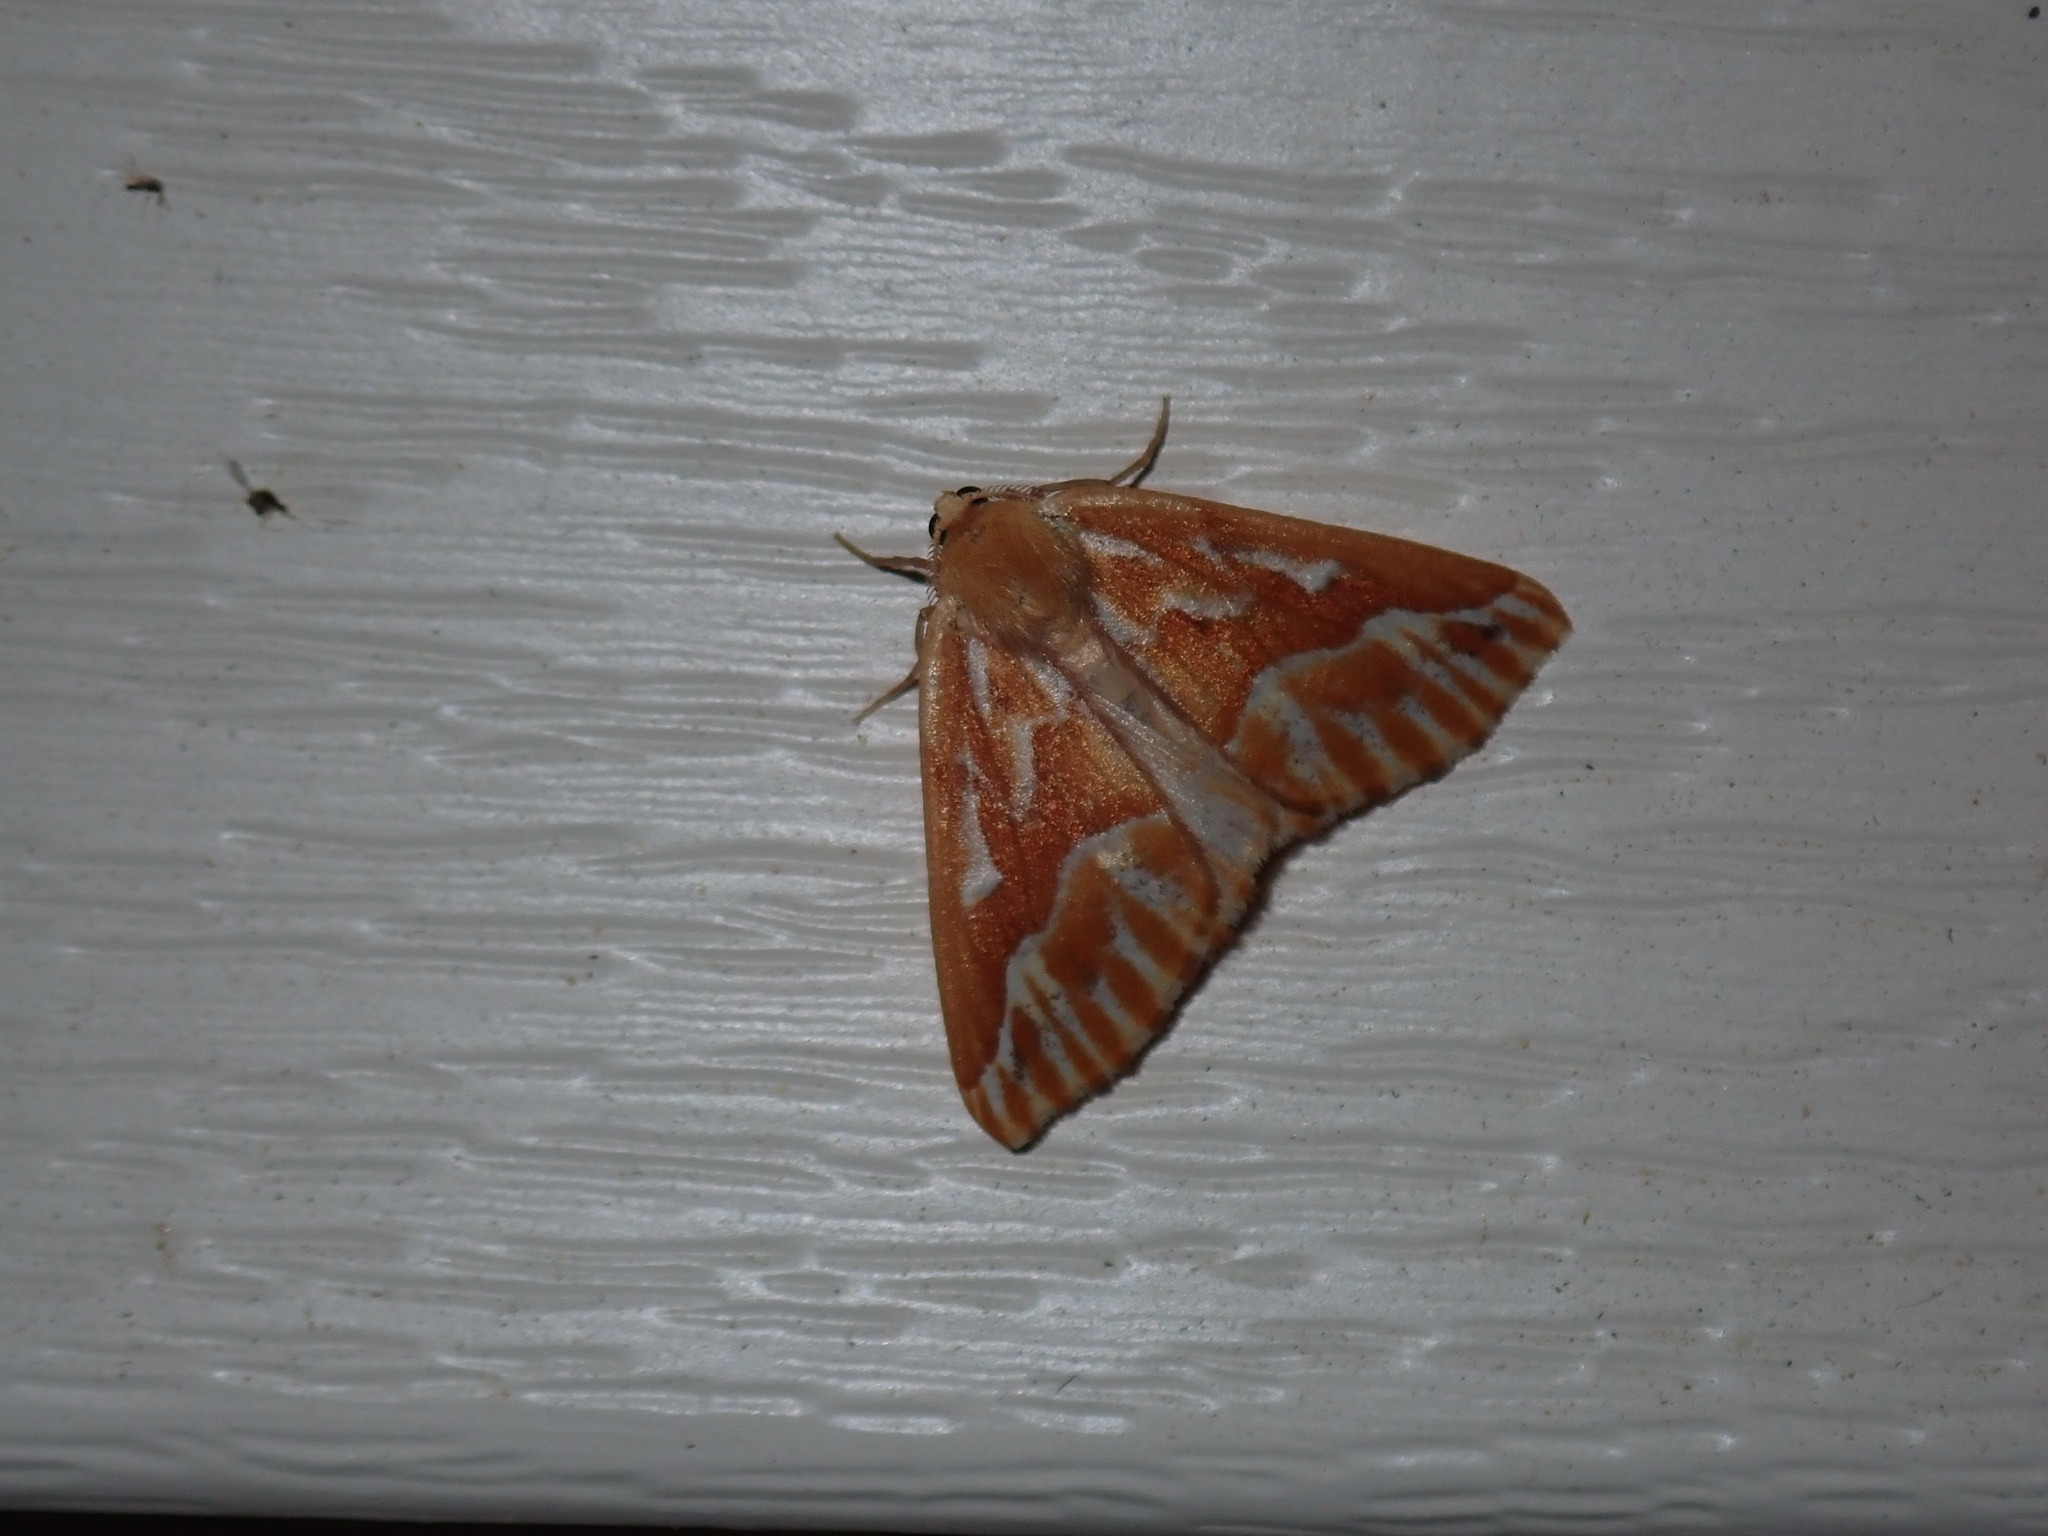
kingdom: Animalia
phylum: Arthropoda
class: Insecta
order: Lepidoptera
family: Geometridae
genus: Caripeta
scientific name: Caripeta piniata
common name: Northern pine looper moth
